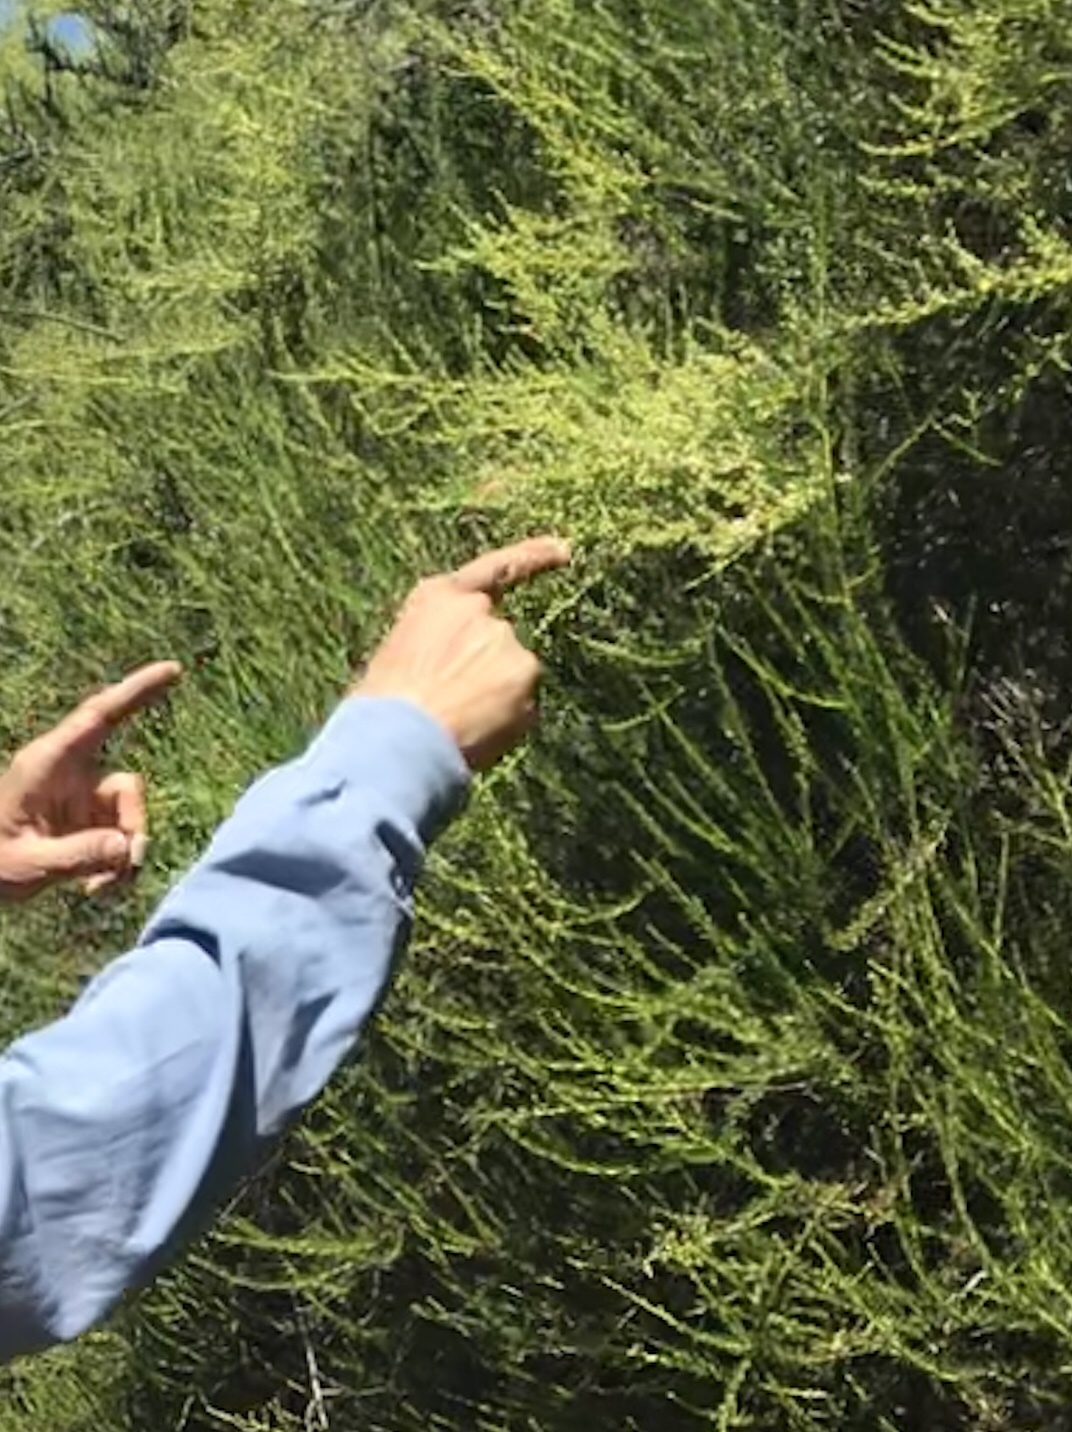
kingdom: Plantae
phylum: Tracheophyta
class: Magnoliopsida
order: Rosales
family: Rosaceae
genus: Adenostoma
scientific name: Adenostoma fasciculatum
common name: Chamise
